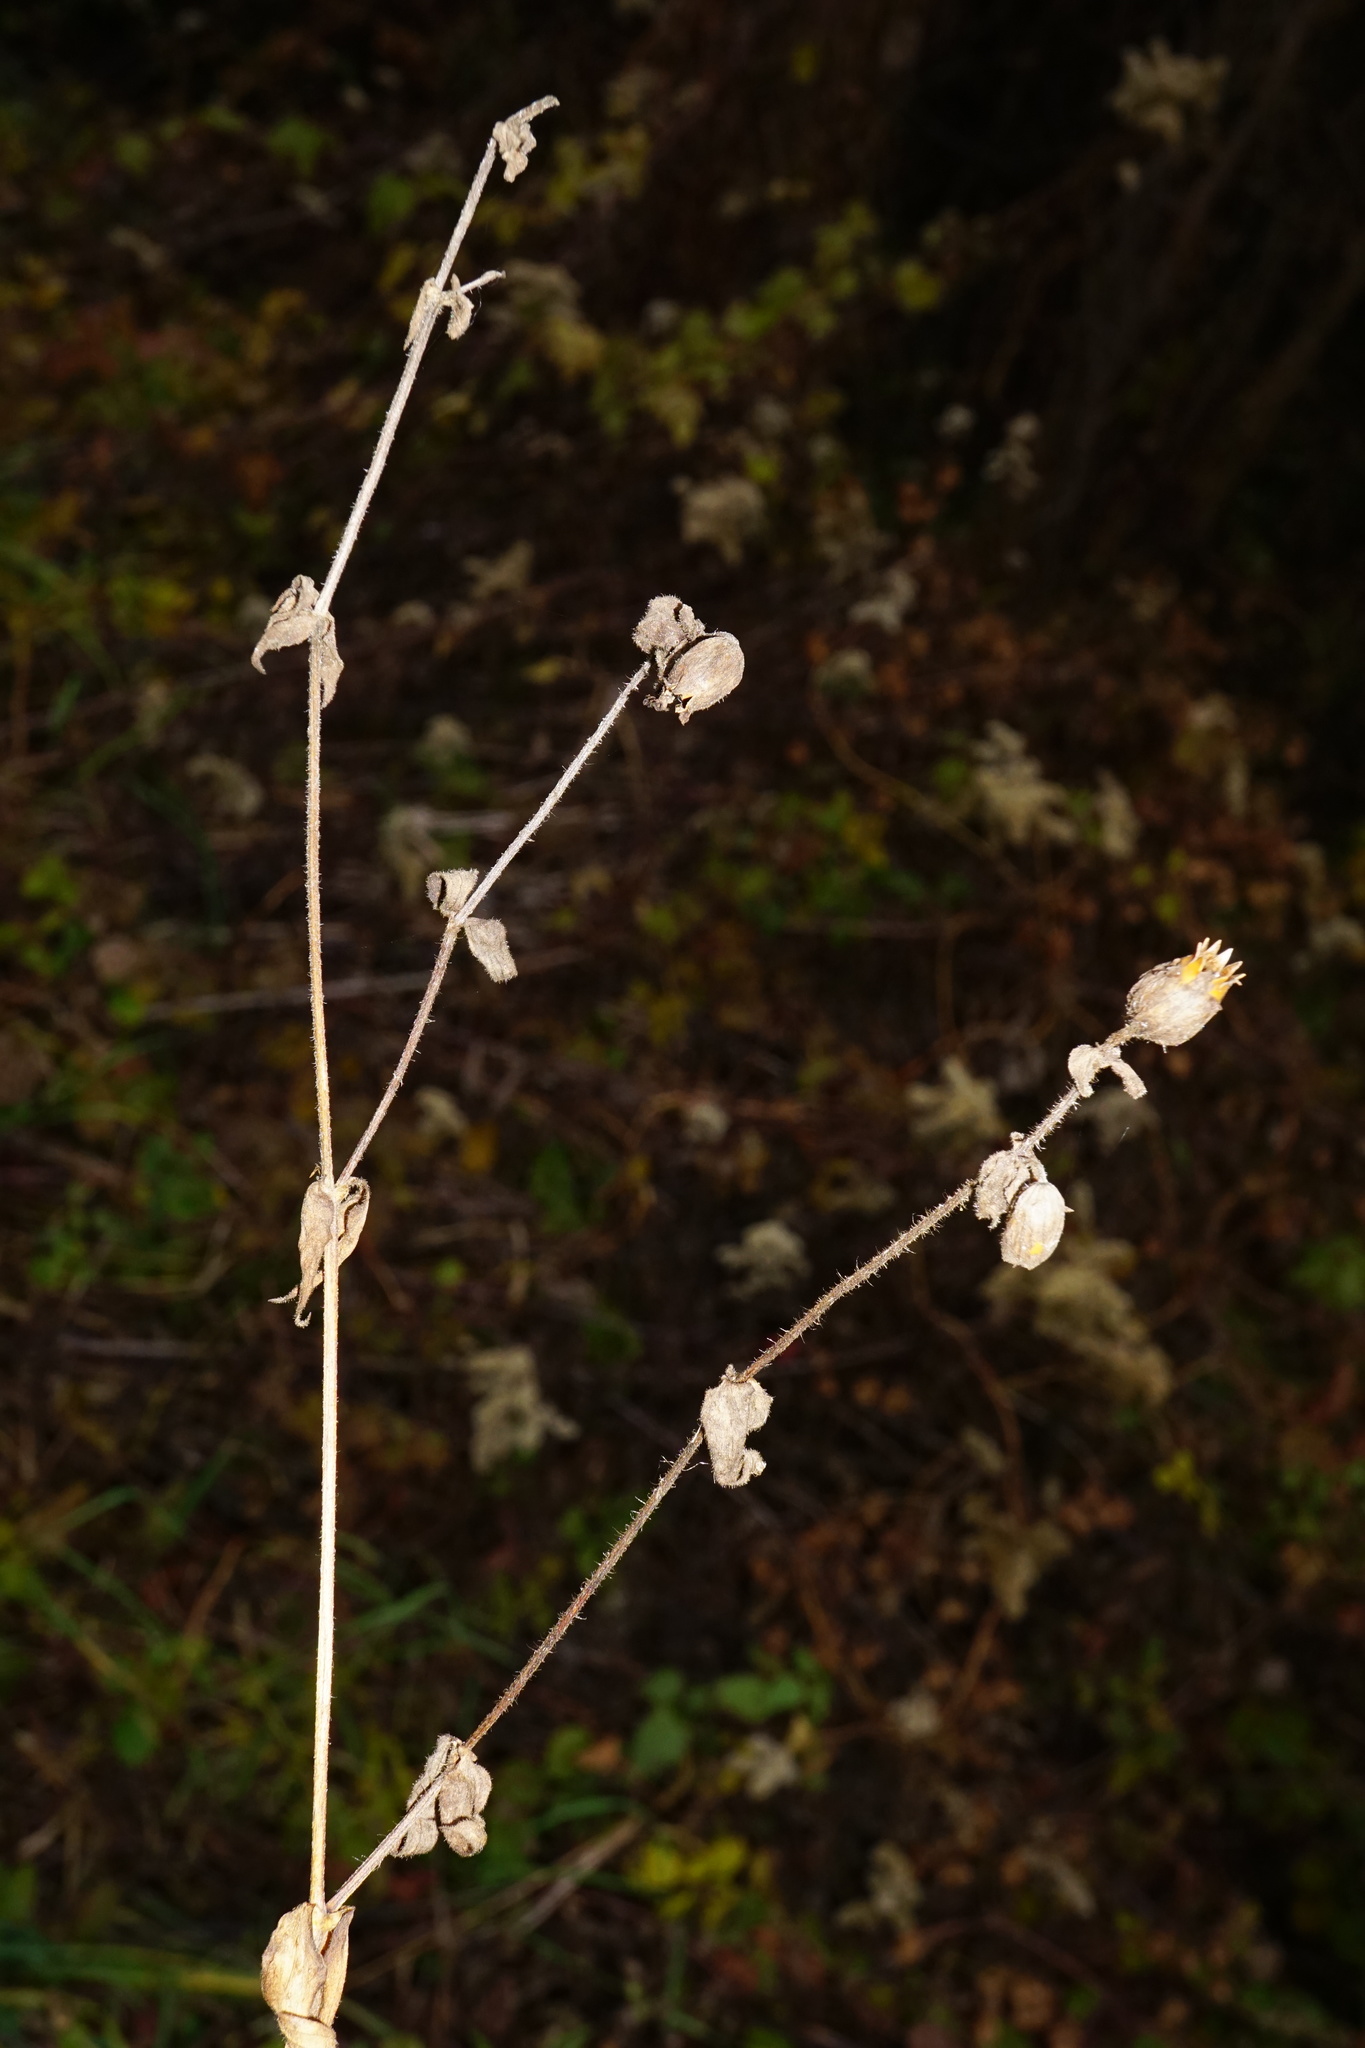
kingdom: Plantae
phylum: Tracheophyta
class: Magnoliopsida
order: Caryophyllales
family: Caryophyllaceae
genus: Silene
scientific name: Silene latifolia
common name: White campion
